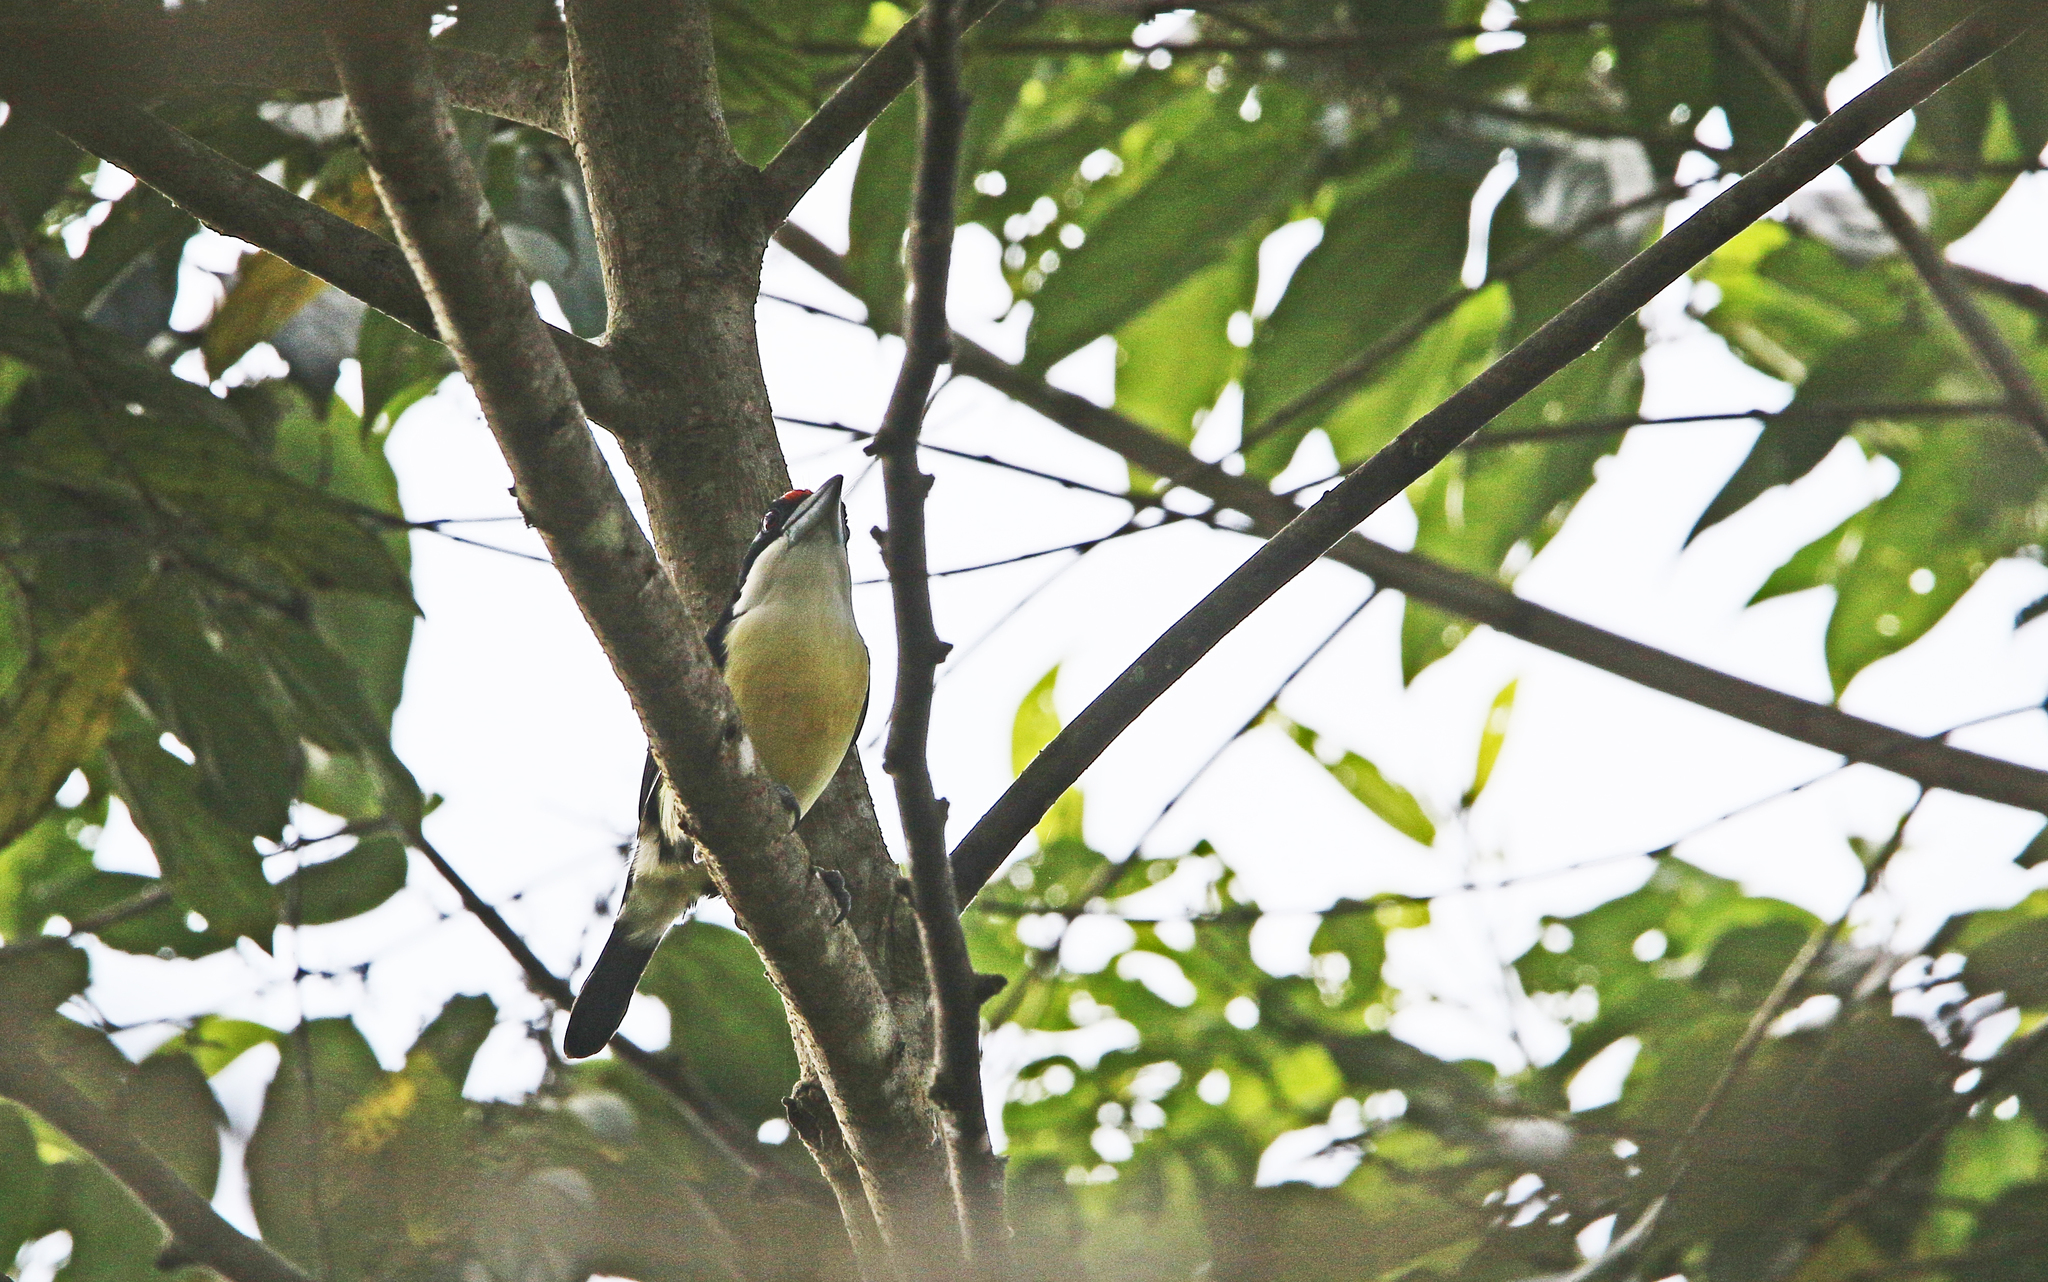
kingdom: Animalia
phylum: Chordata
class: Aves
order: Piciformes
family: Capitonidae
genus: Capito
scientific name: Capito squamatus
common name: Orange-fronted barbet
